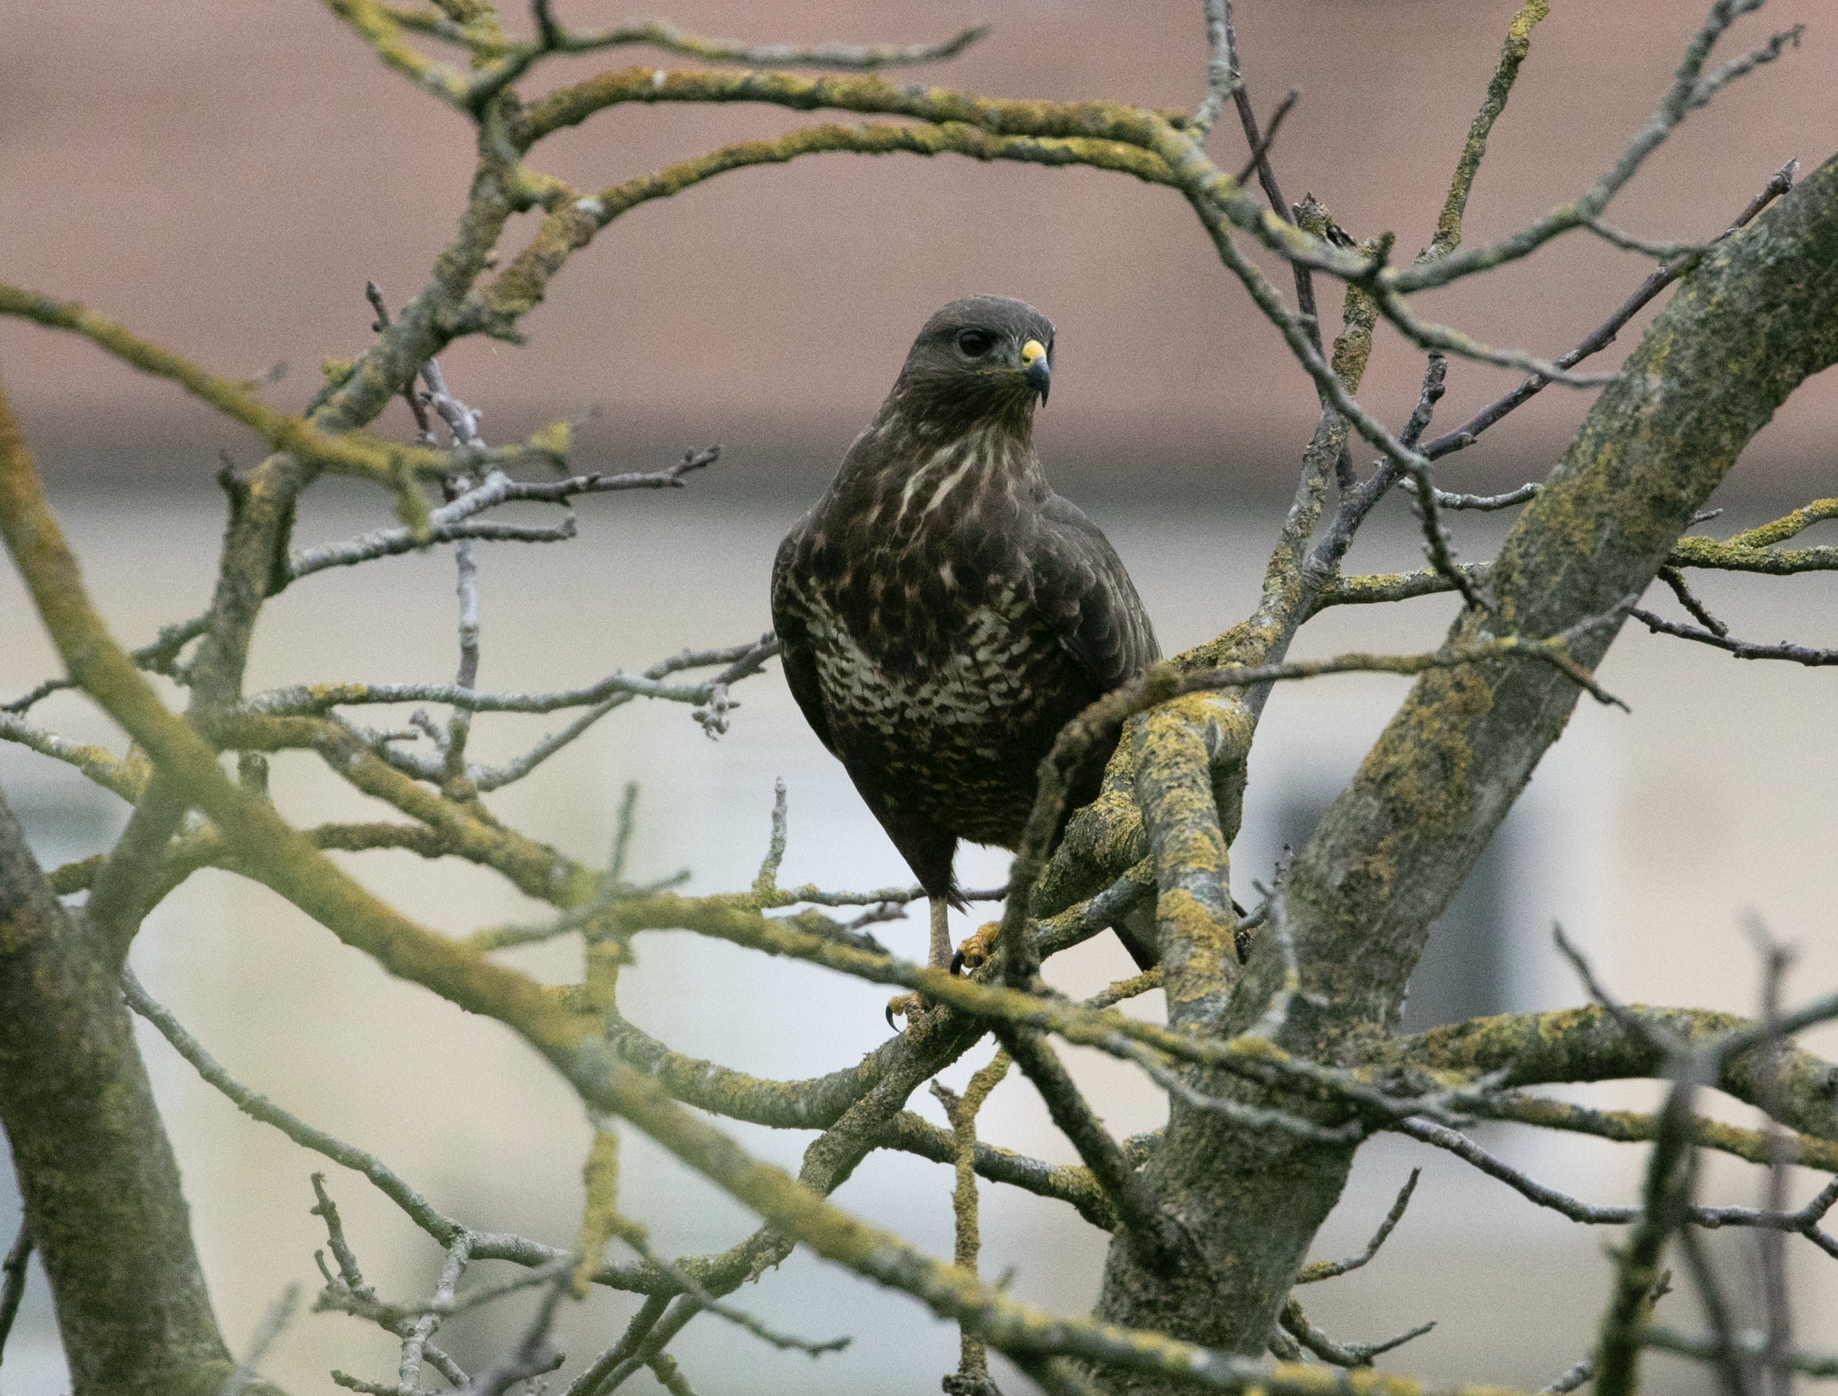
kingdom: Animalia
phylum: Chordata
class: Aves
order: Accipitriformes
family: Accipitridae
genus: Buteo
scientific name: Buteo buteo
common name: Common buzzard
